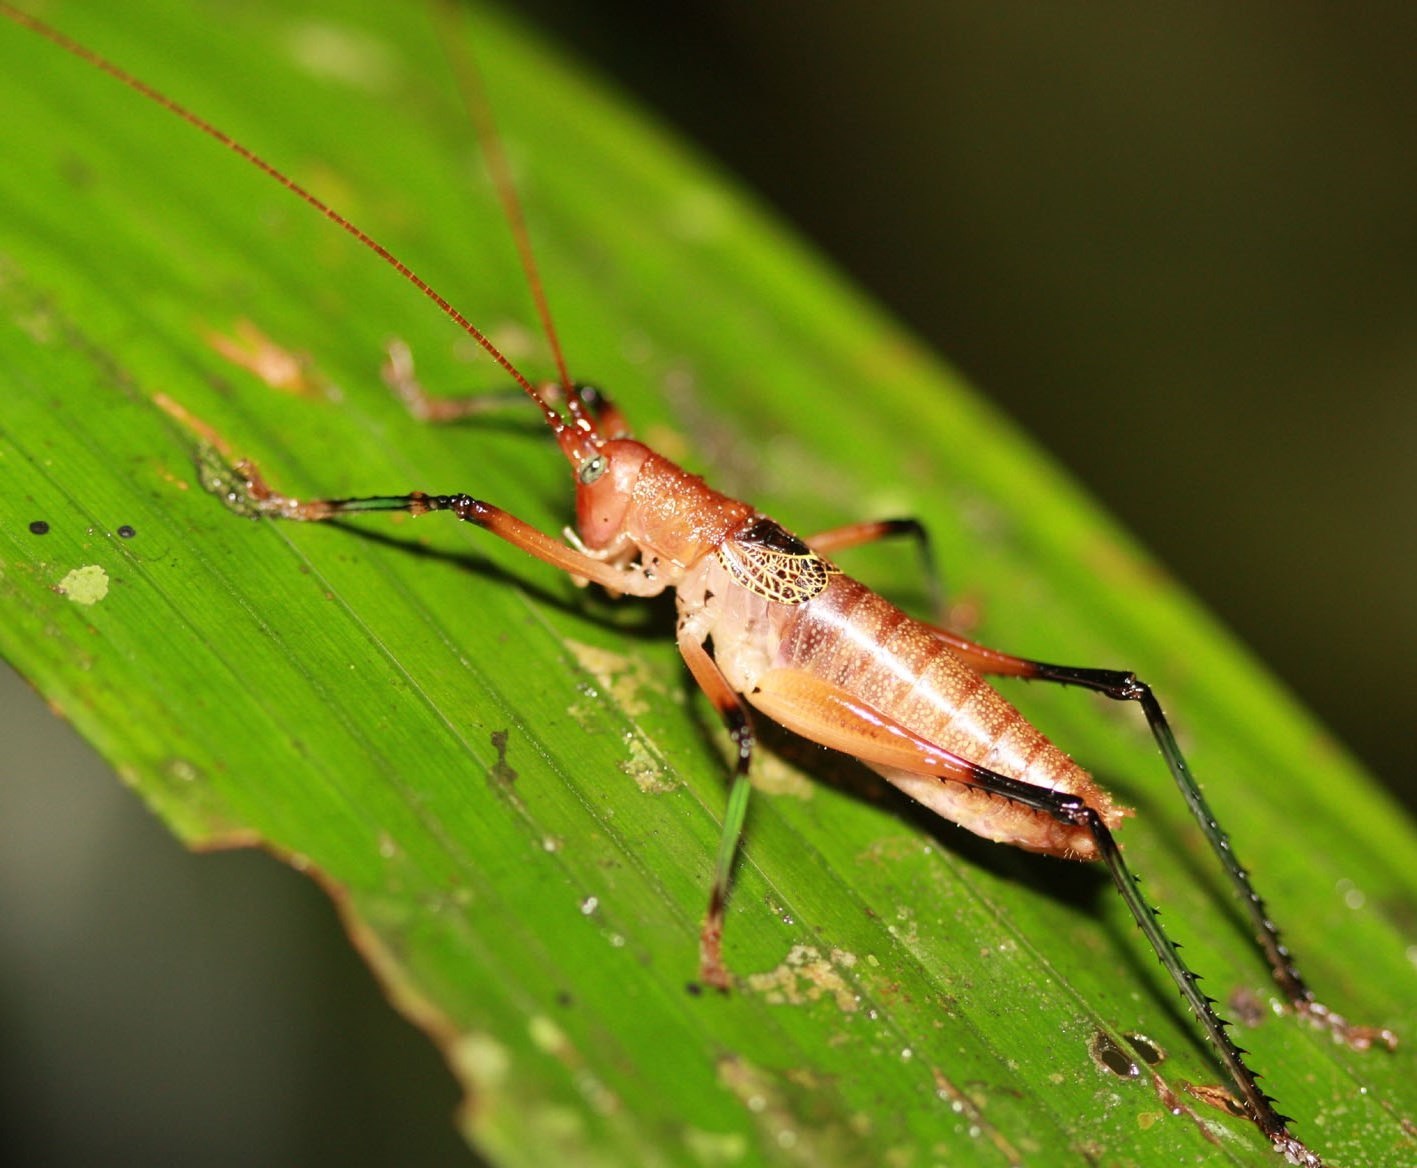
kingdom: Animalia
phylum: Arthropoda
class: Insecta
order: Orthoptera
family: Tettigoniidae
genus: Ottotettix
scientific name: Ottotettix smaragdopoda
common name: Emerald-legged katydid
